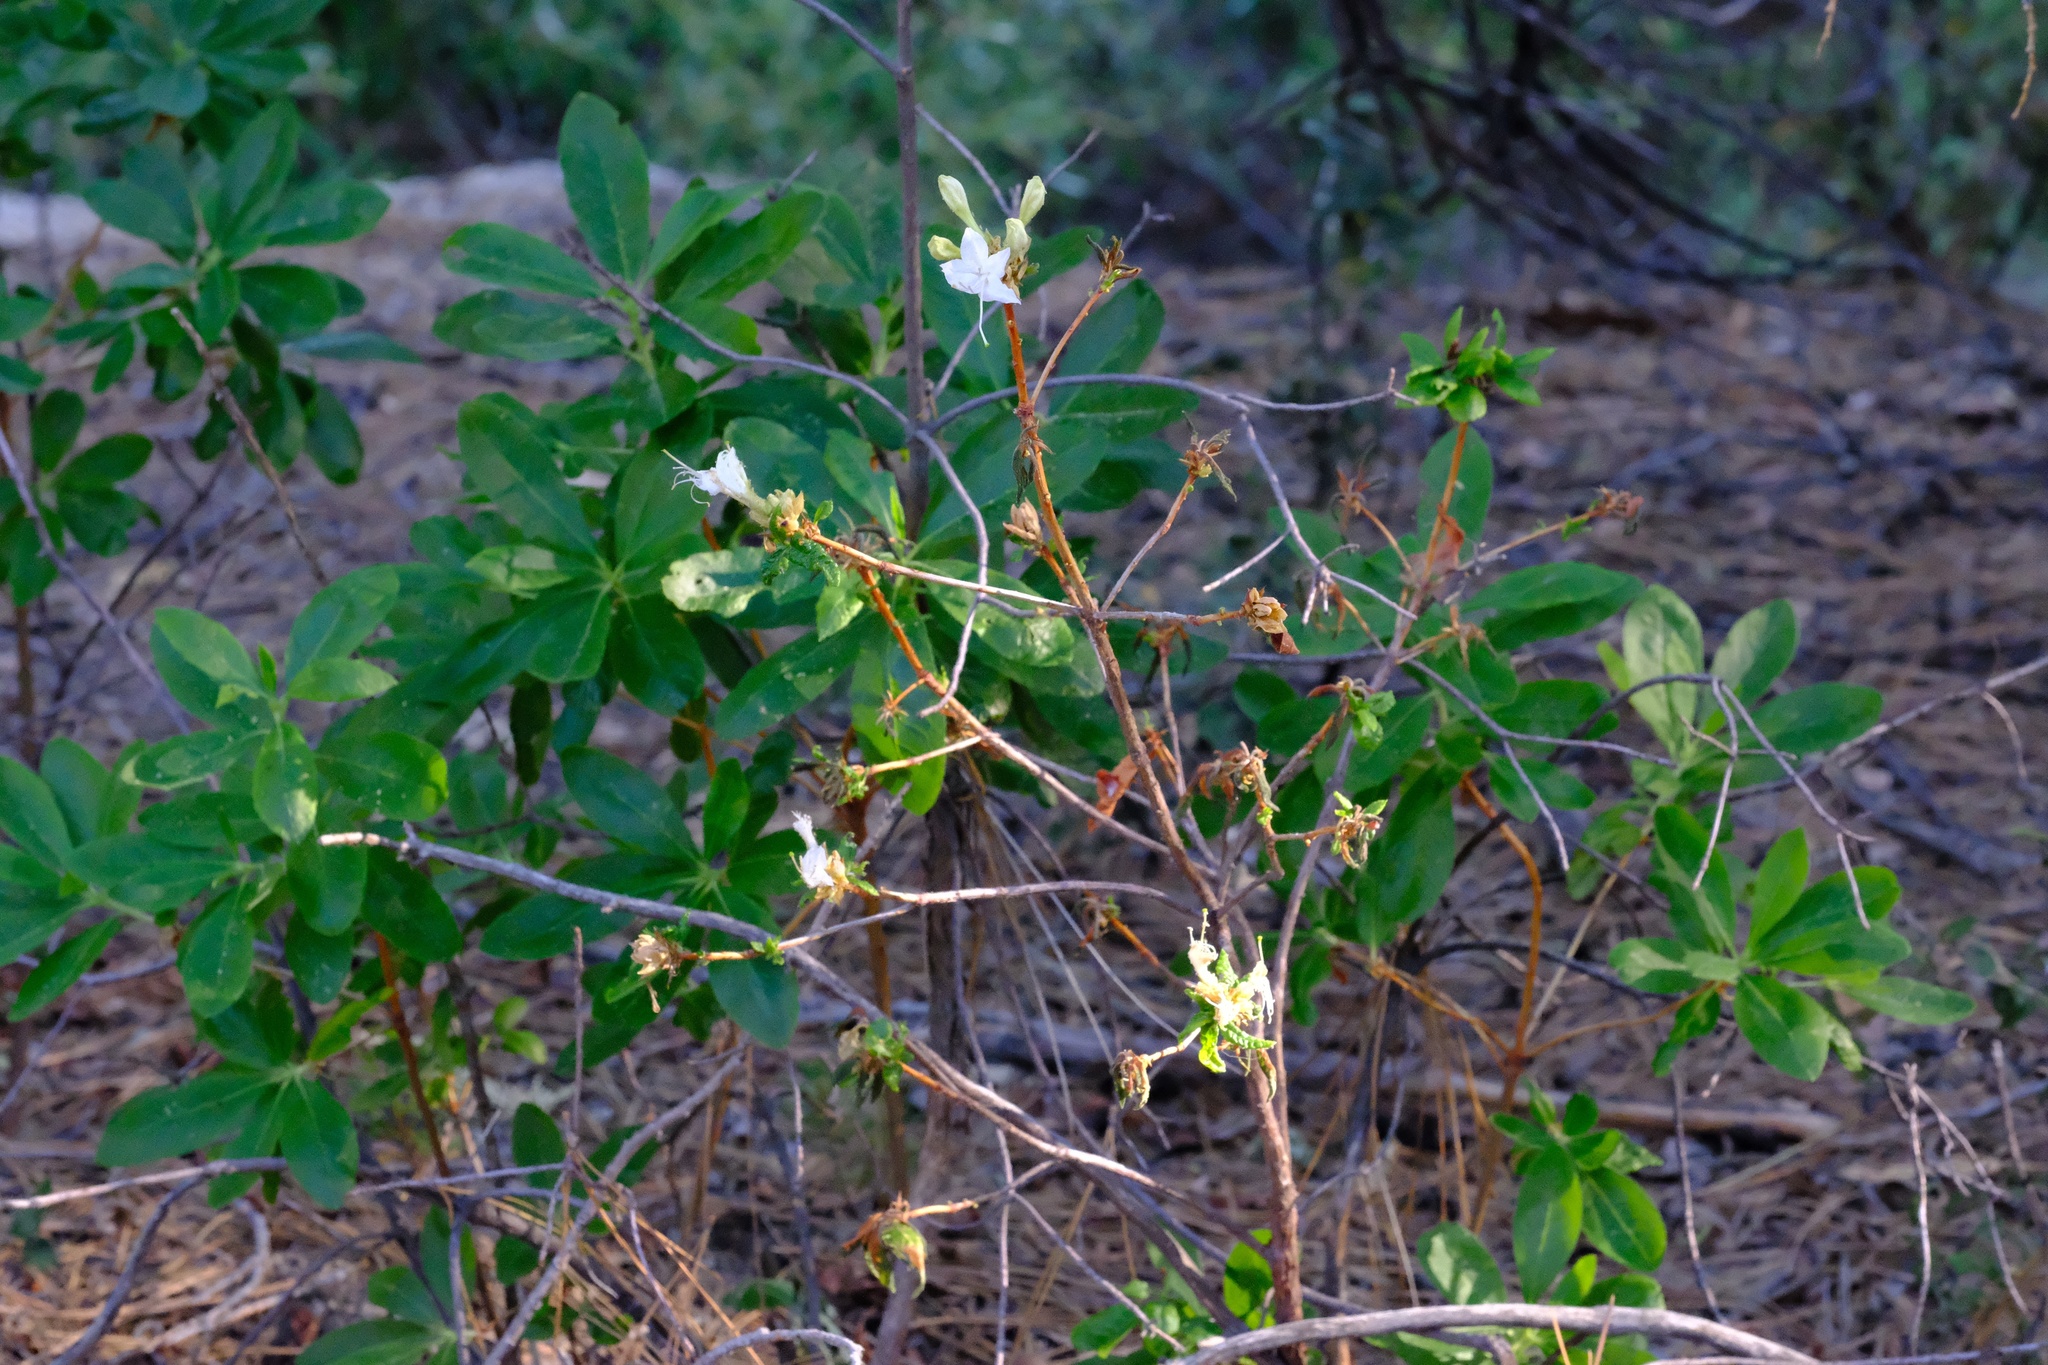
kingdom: Plantae
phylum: Tracheophyta
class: Magnoliopsida
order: Ericales
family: Ericaceae
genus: Rhododendron
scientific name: Rhododendron occidentale
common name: Western azalea
